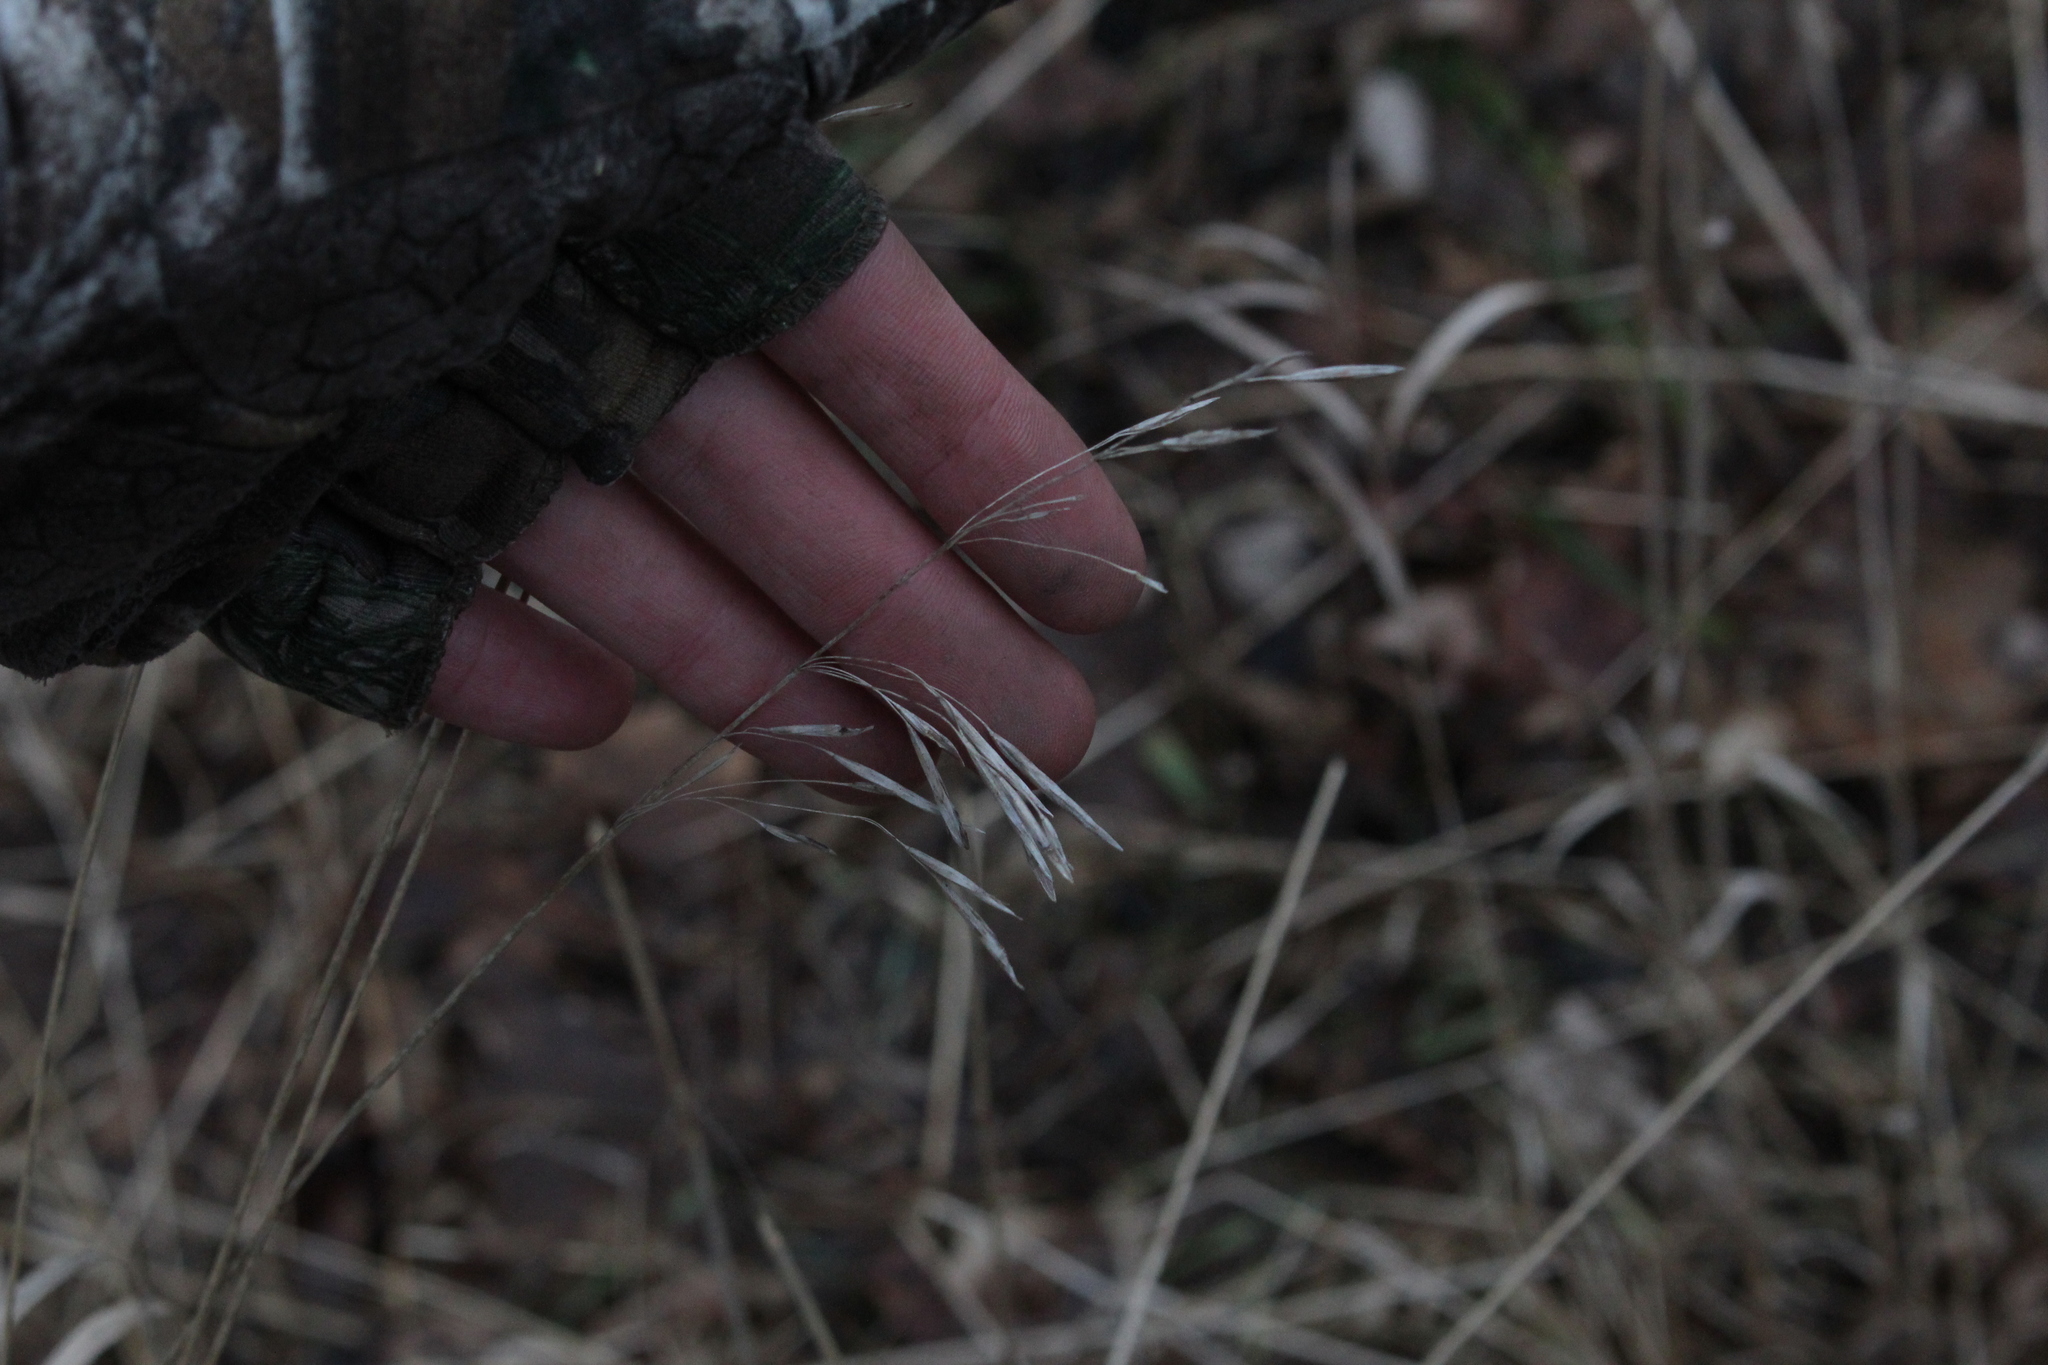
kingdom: Plantae
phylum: Tracheophyta
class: Liliopsida
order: Poales
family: Poaceae
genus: Bromus
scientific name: Bromus inermis
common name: Smooth brome
